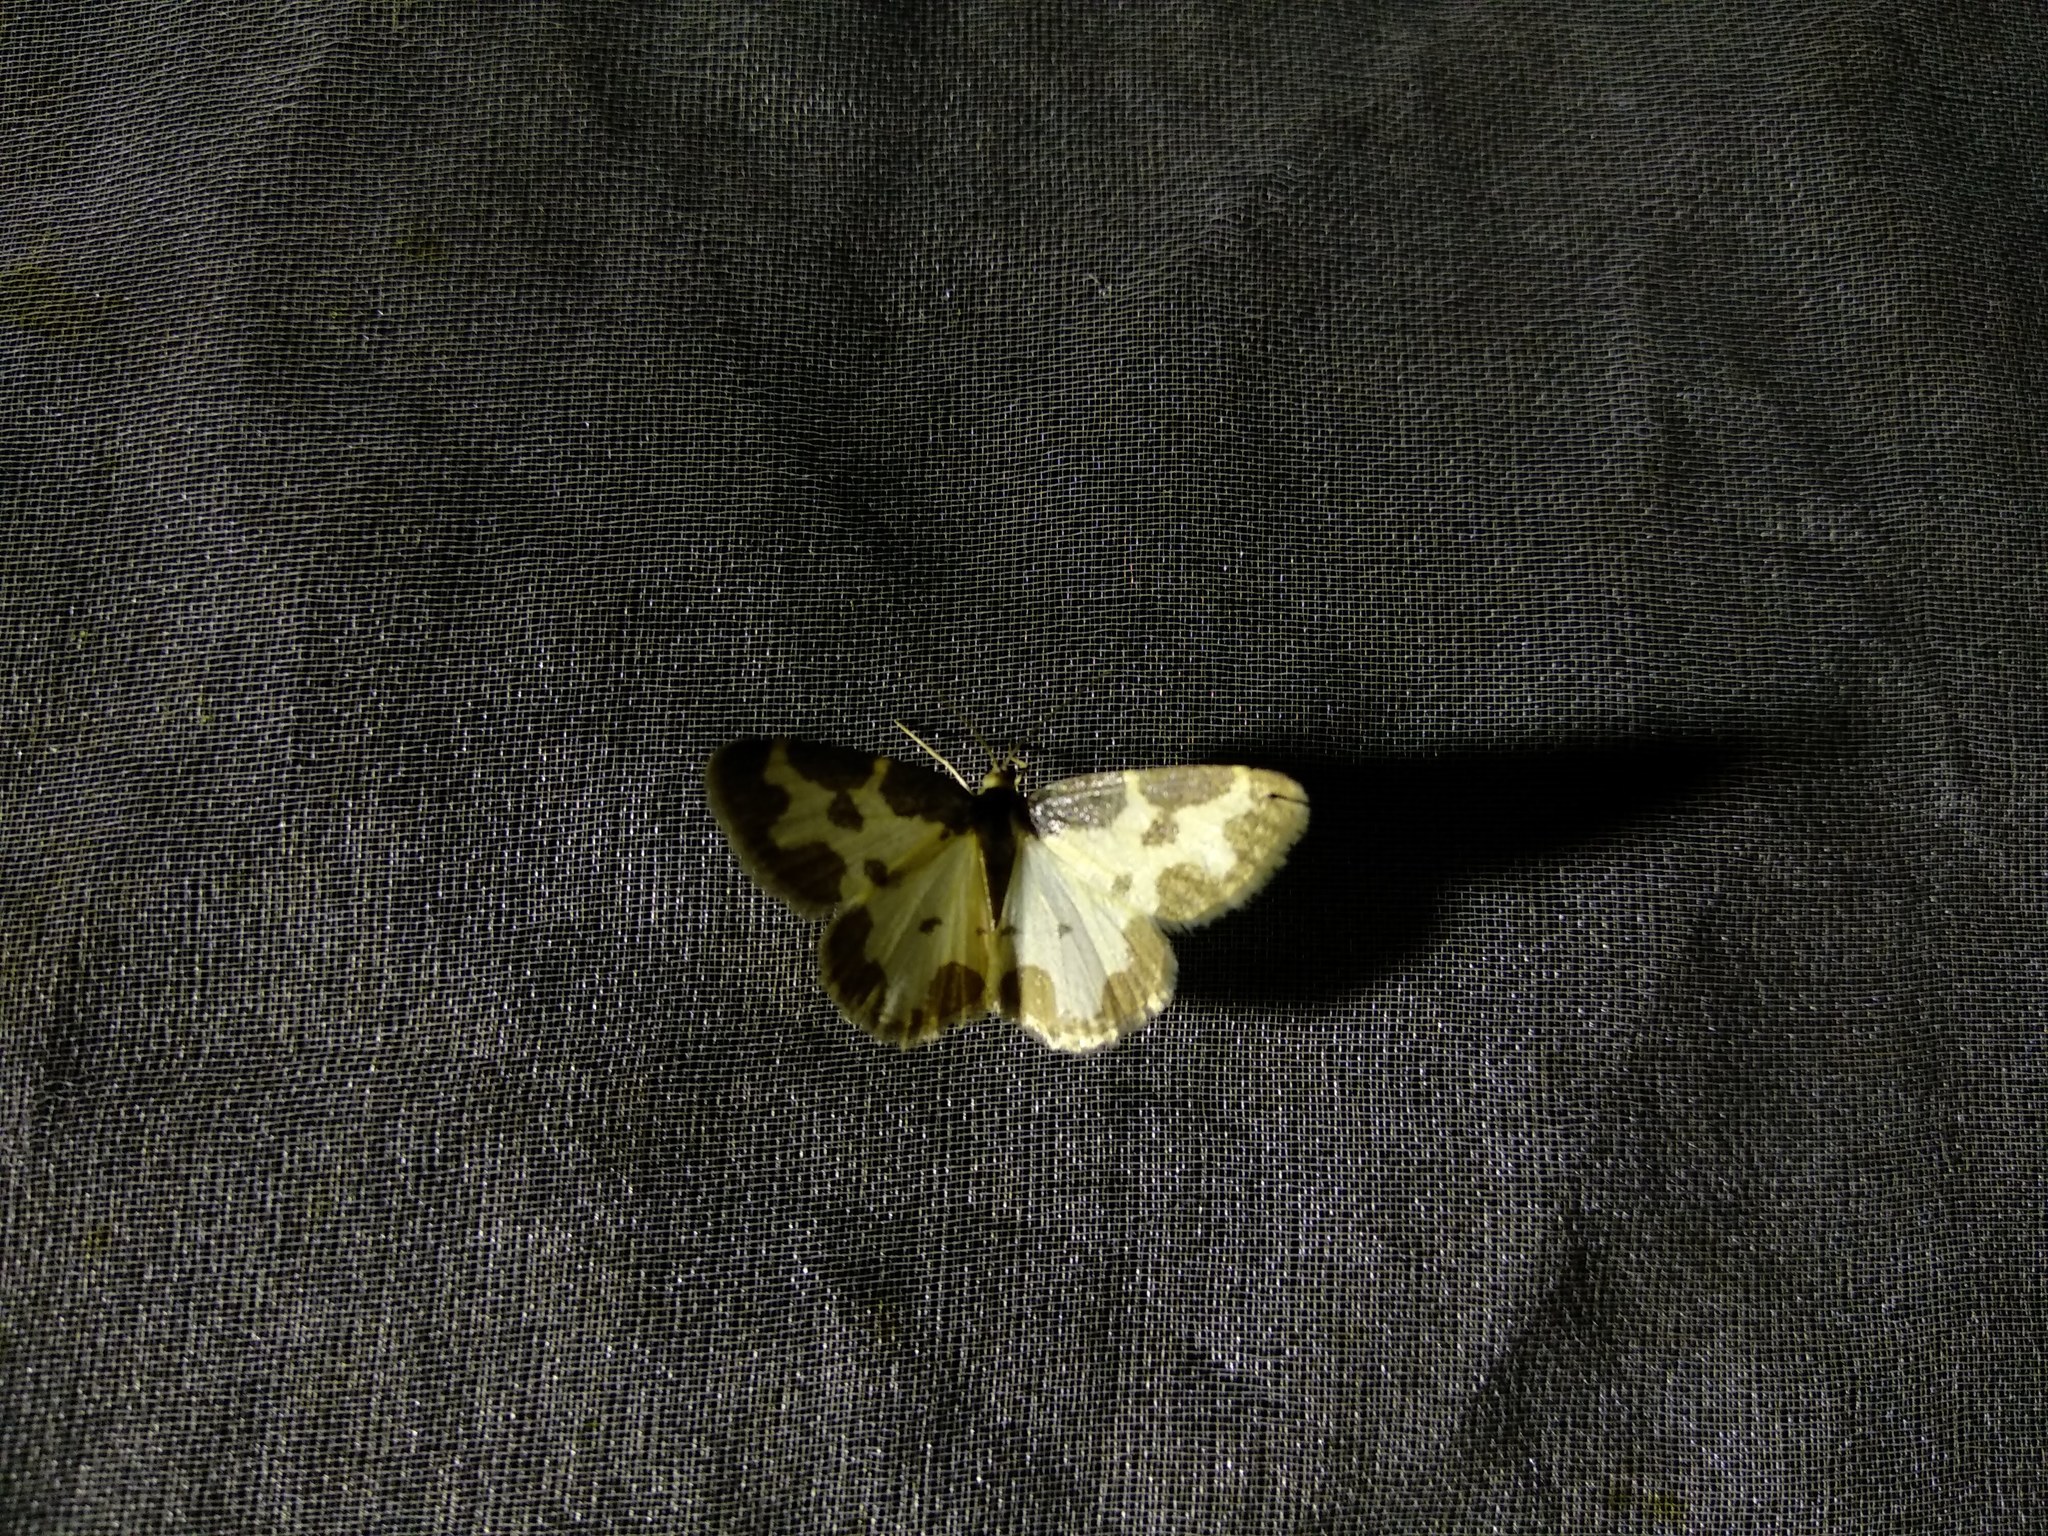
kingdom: Animalia
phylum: Arthropoda
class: Insecta
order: Lepidoptera
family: Geometridae
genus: Lomaspilis
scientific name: Lomaspilis marginata
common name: Clouded border
